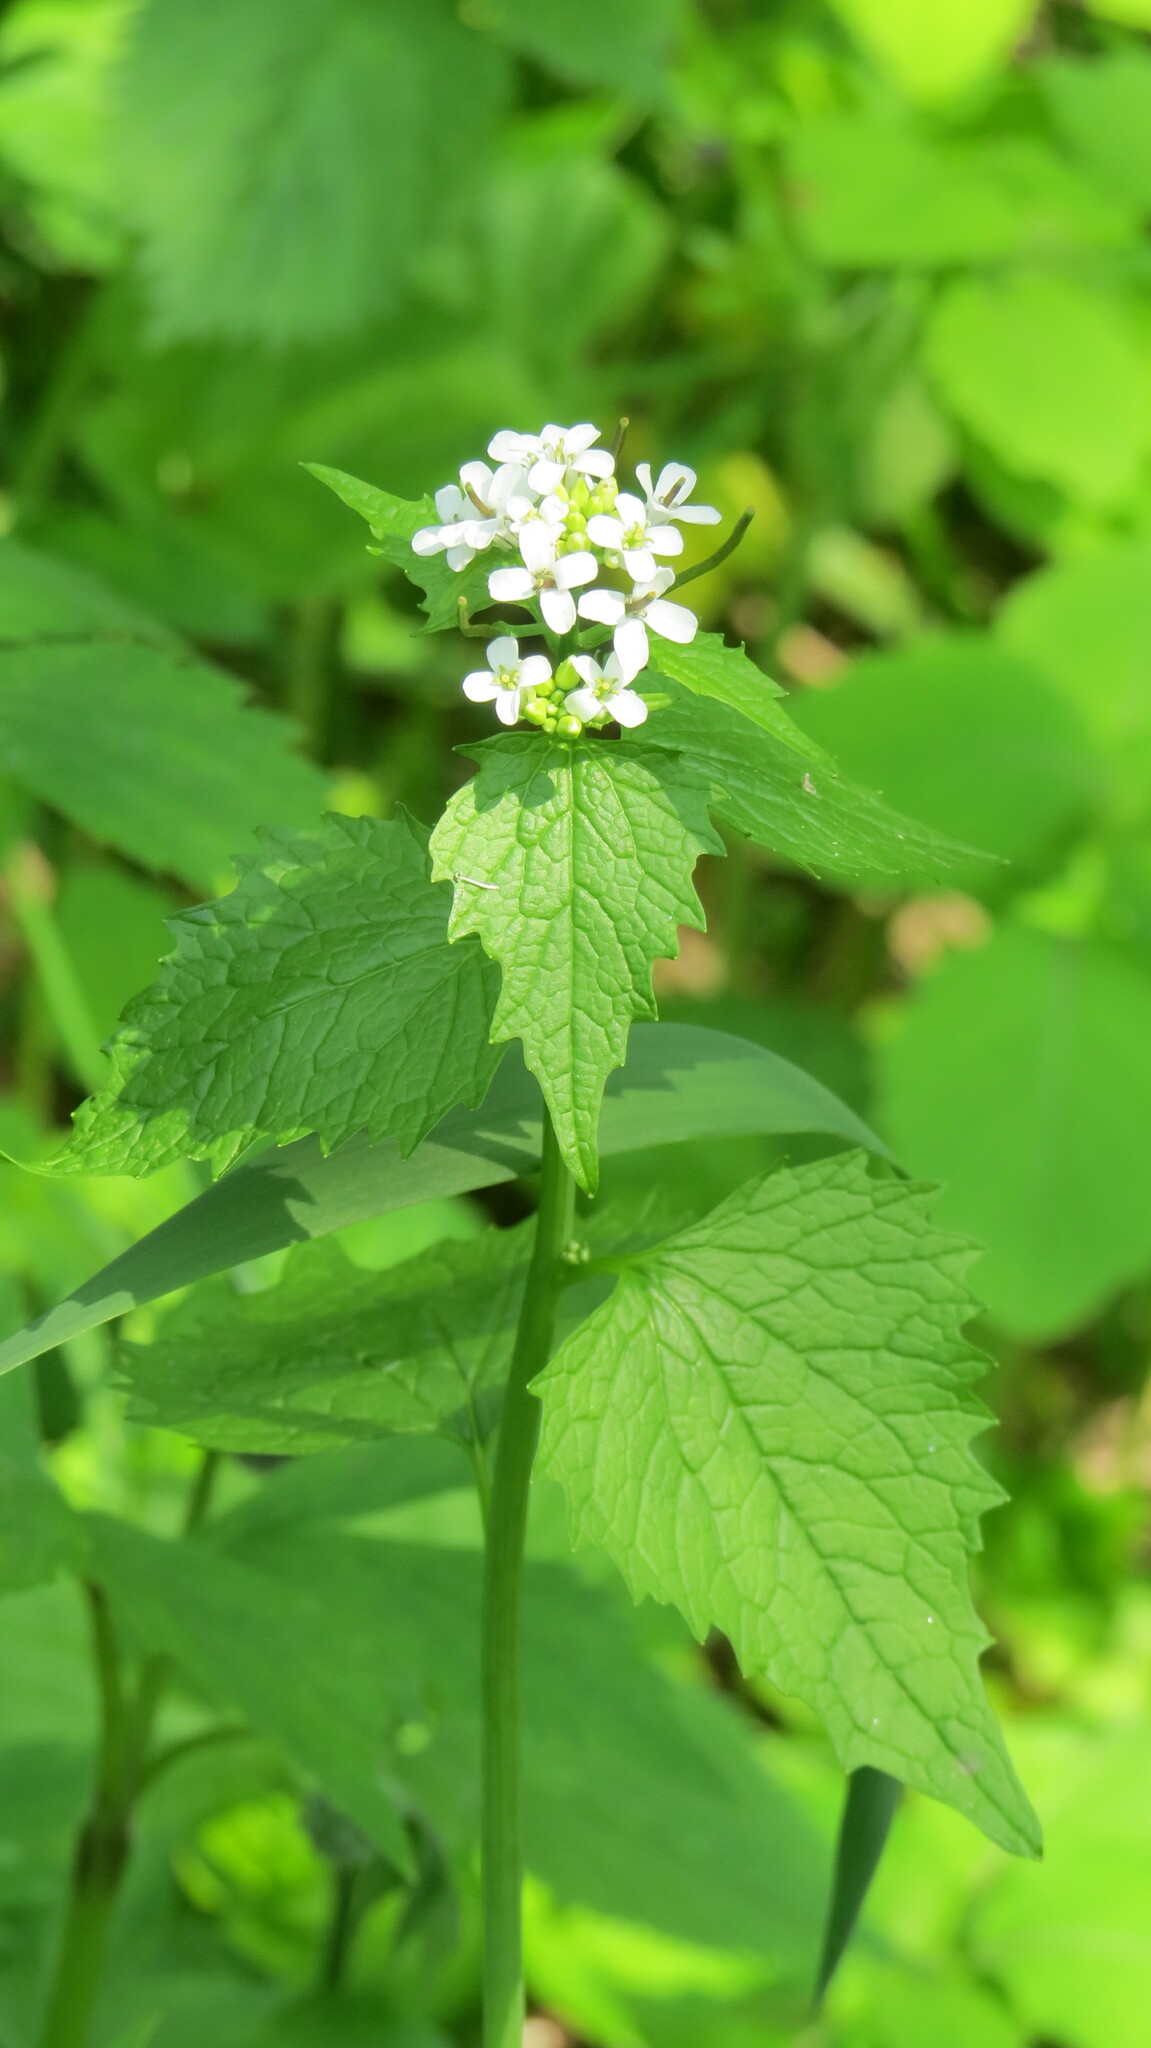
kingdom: Plantae
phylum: Tracheophyta
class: Magnoliopsida
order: Brassicales
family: Brassicaceae
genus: Alliaria
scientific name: Alliaria petiolata
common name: Garlic mustard
